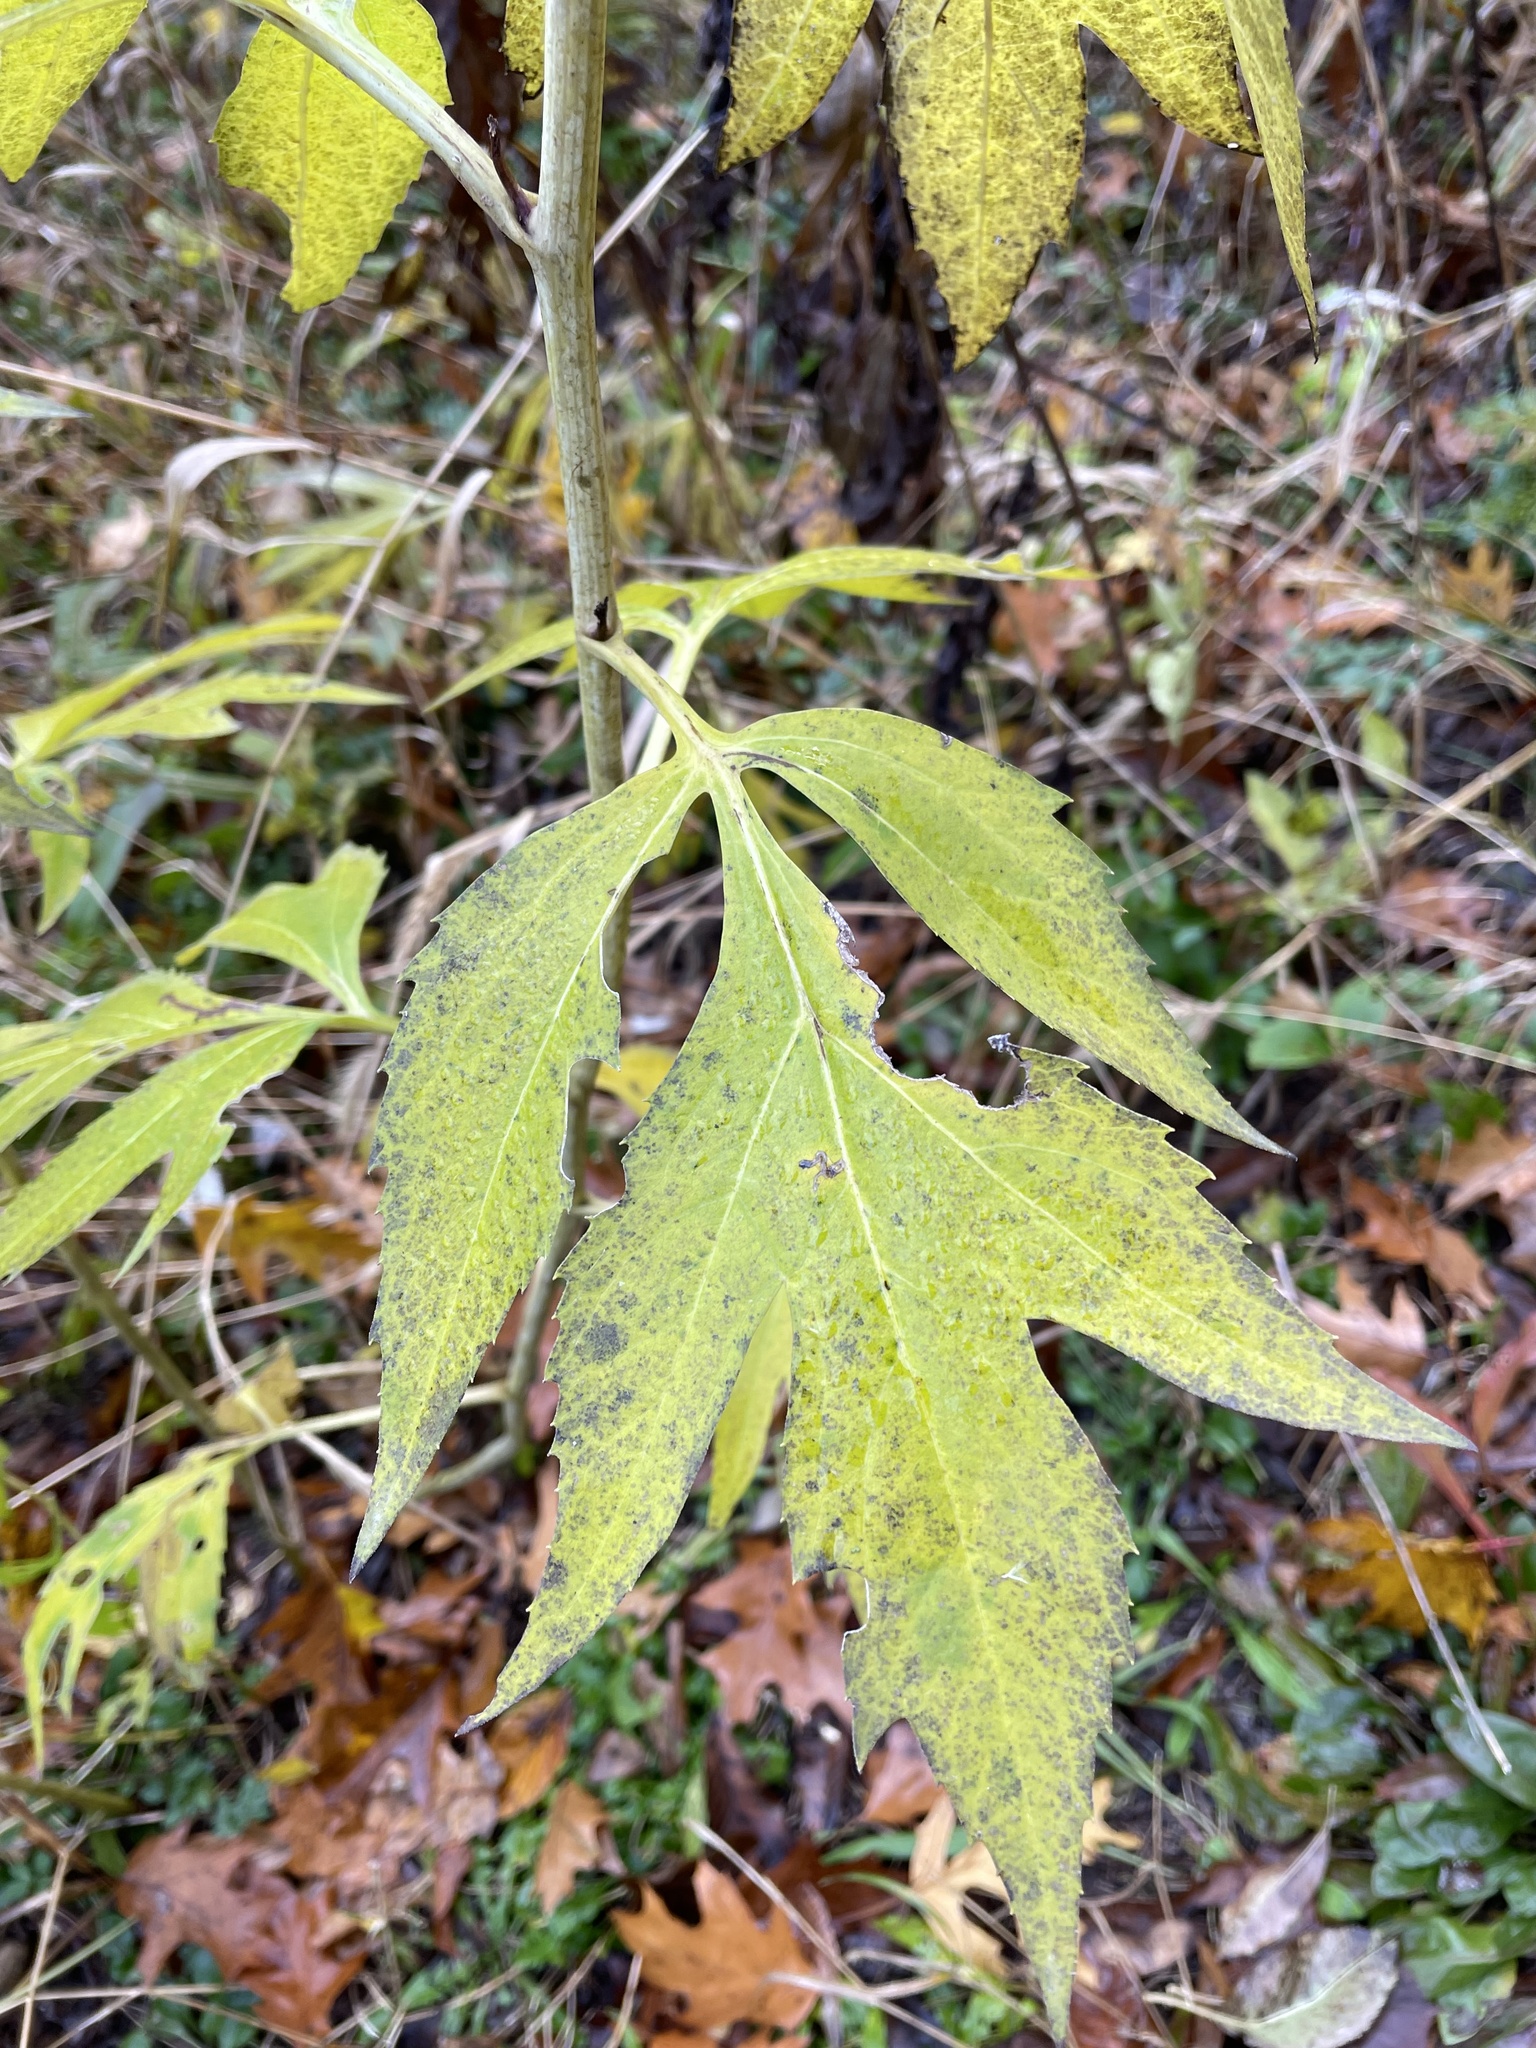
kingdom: Plantae
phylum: Tracheophyta
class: Magnoliopsida
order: Asterales
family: Asteraceae
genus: Rudbeckia
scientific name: Rudbeckia laciniata
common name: Coneflower
